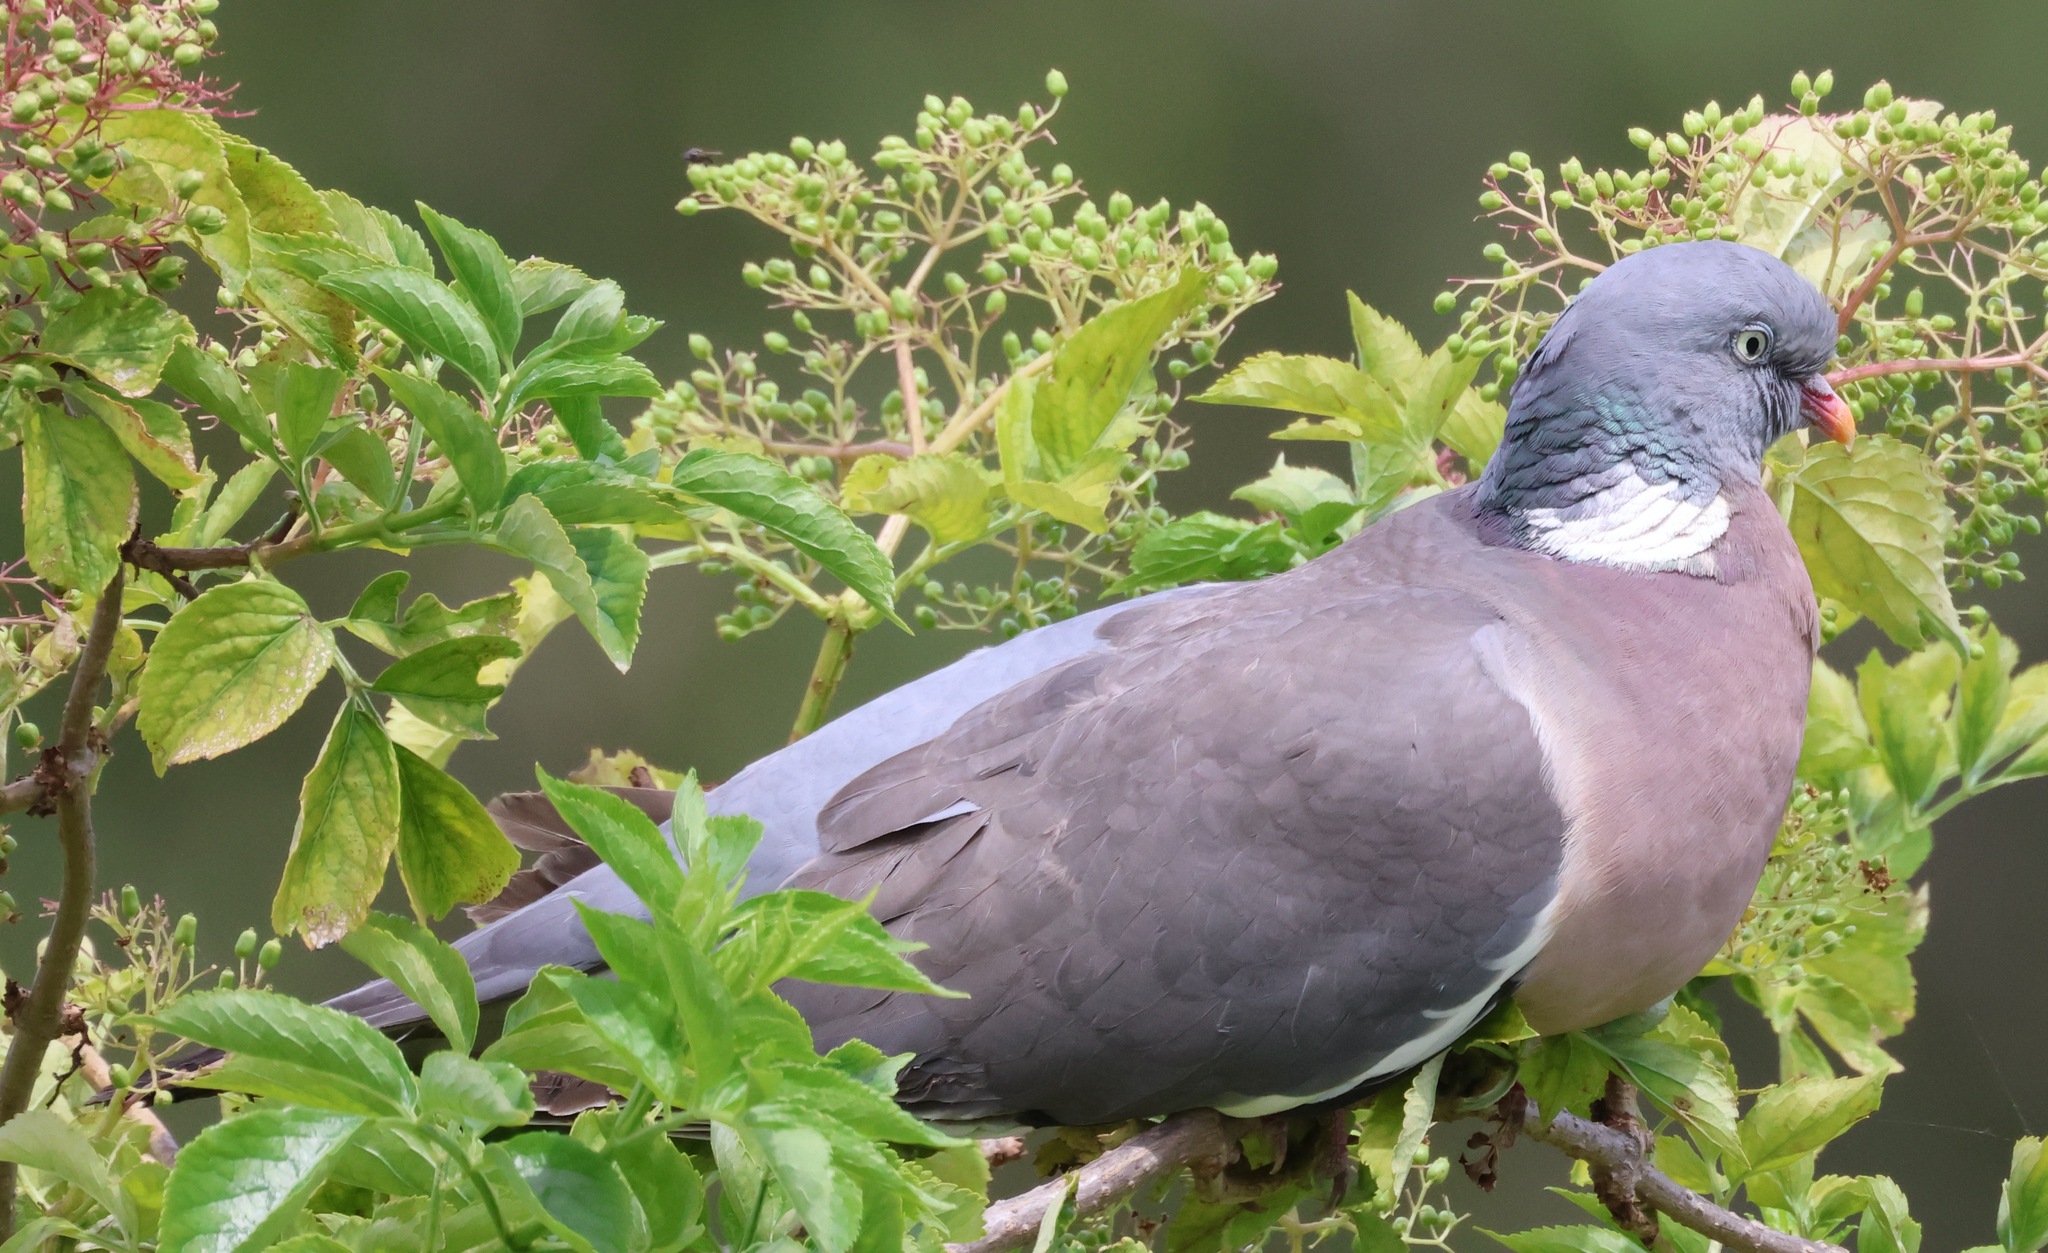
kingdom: Animalia
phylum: Chordata
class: Aves
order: Columbiformes
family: Columbidae
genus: Columba
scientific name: Columba palumbus
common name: Common wood pigeon
